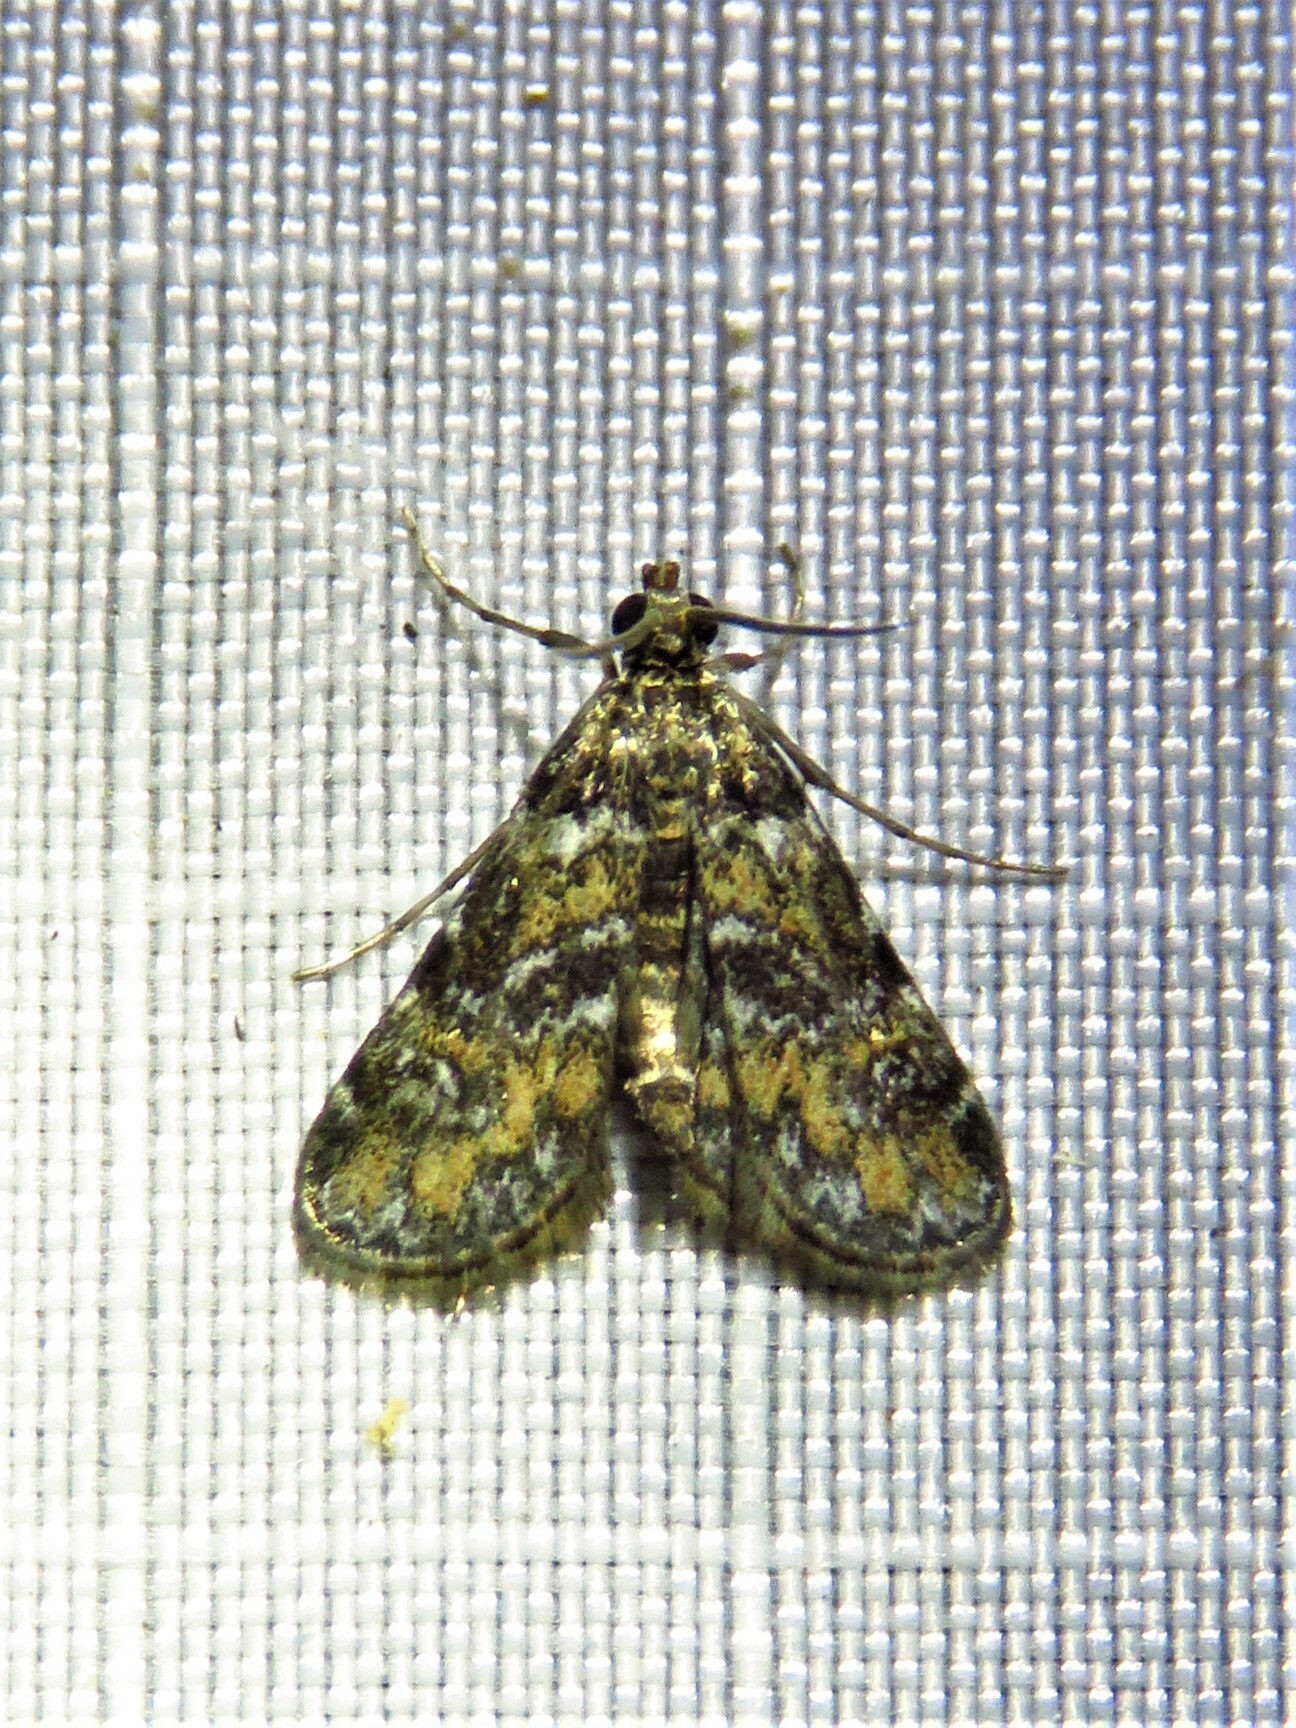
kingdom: Animalia
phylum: Arthropoda
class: Insecta
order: Lepidoptera
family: Crambidae
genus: Elophila
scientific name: Elophila obliteralis
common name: Waterlily leafcutter moth
